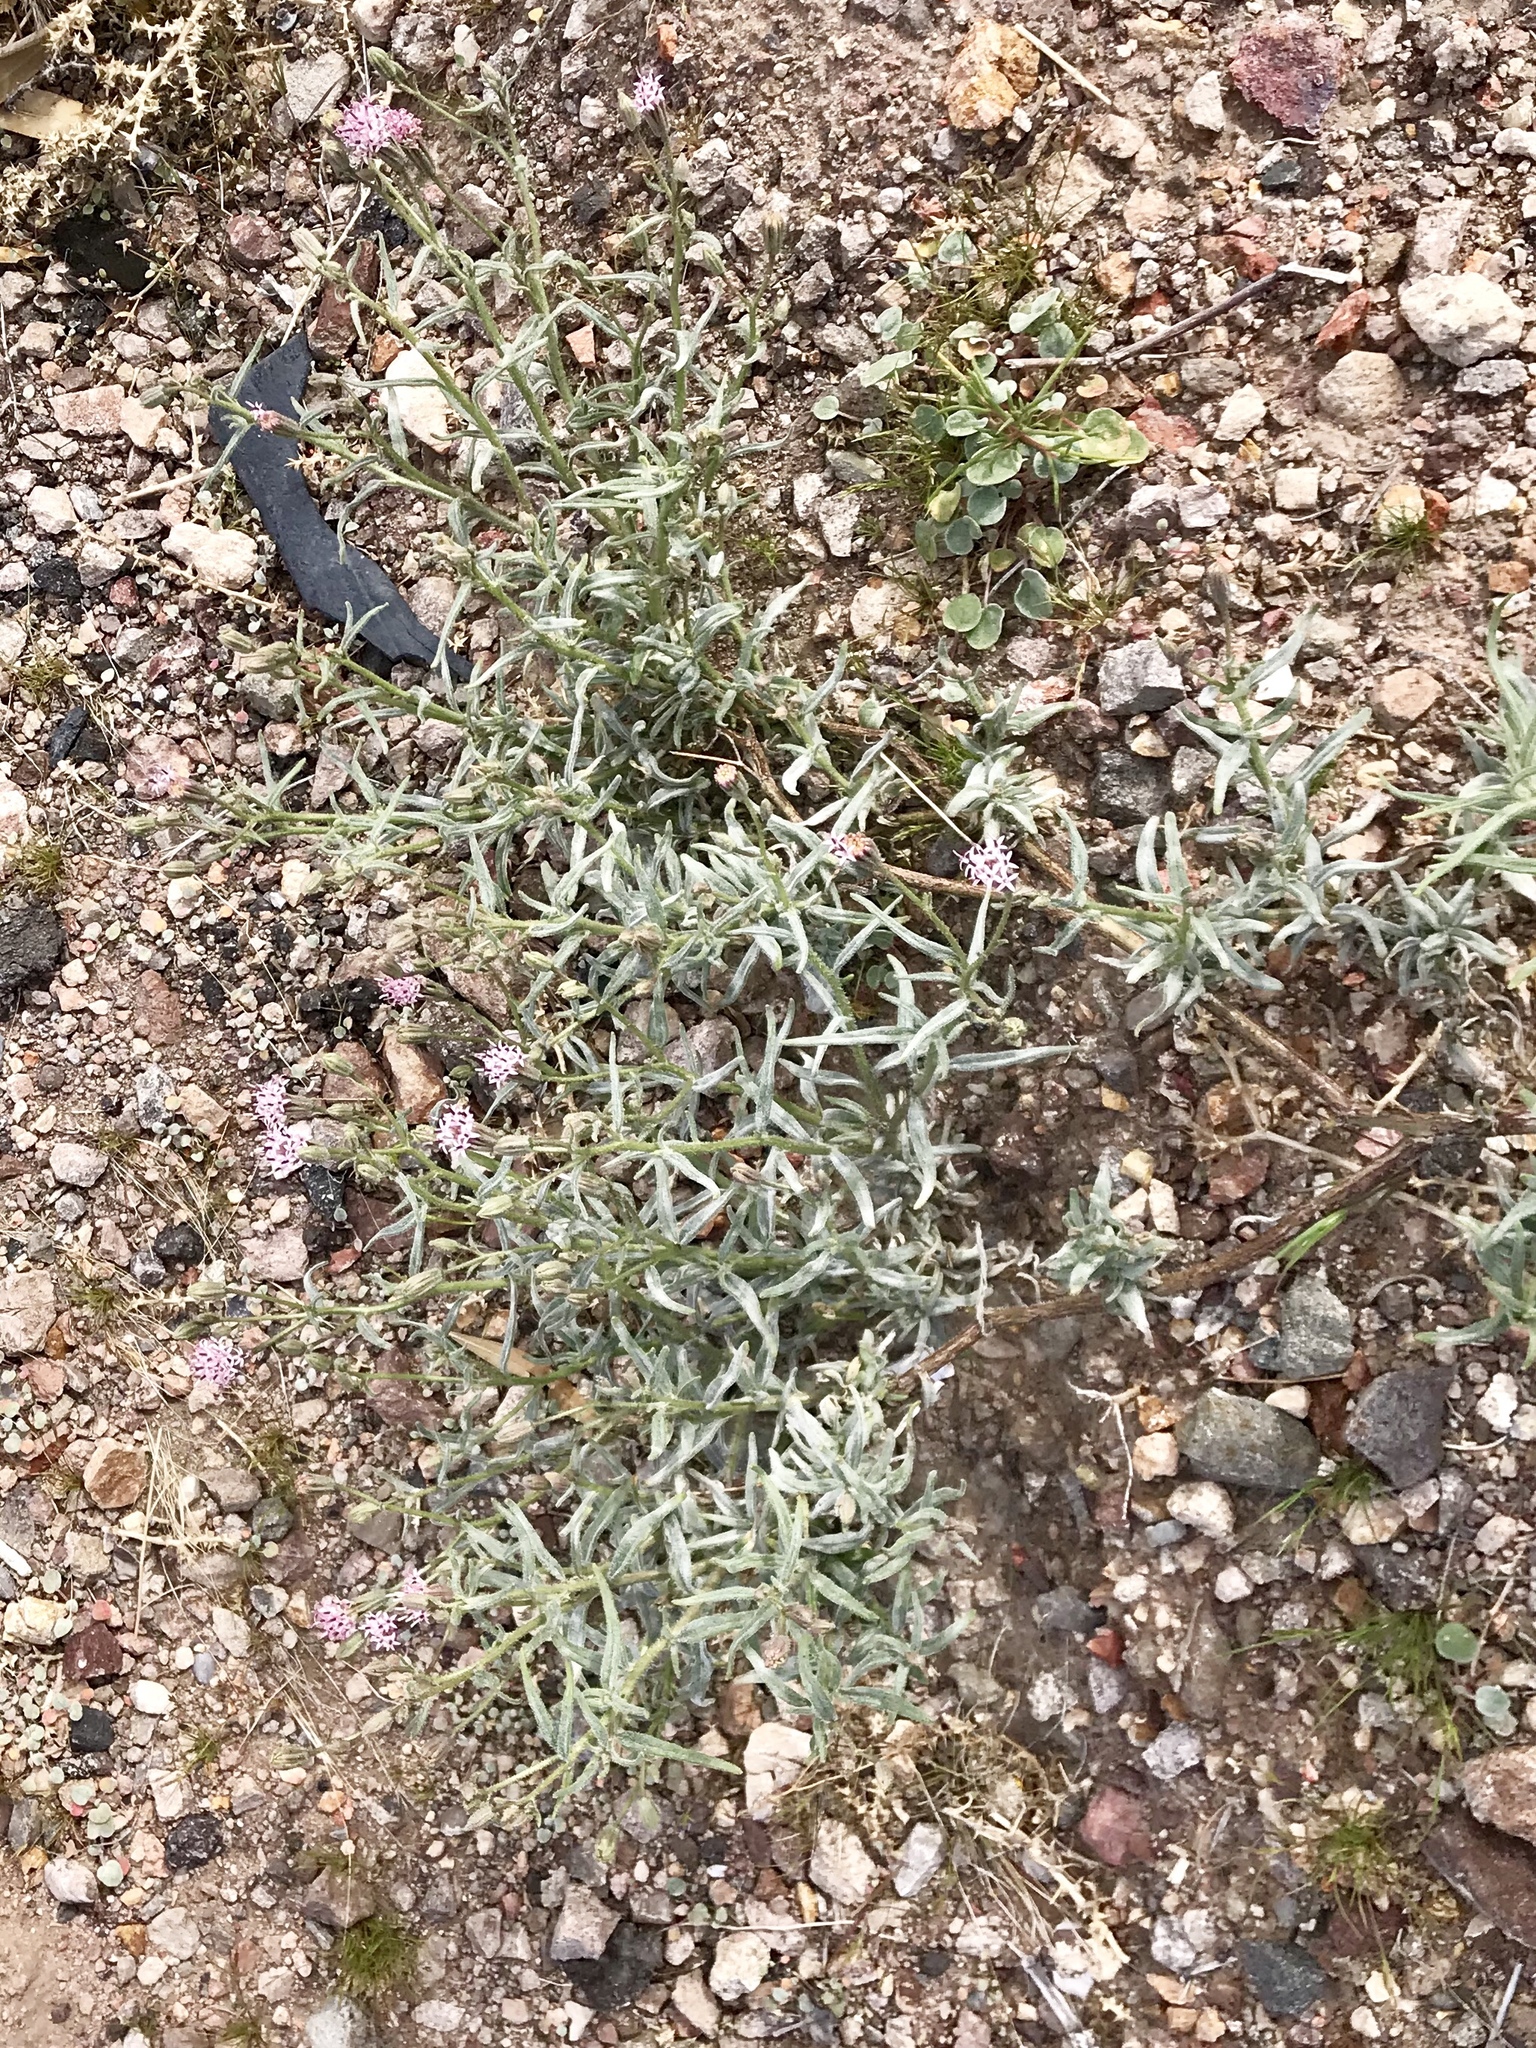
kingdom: Plantae
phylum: Tracheophyta
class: Magnoliopsida
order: Asterales
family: Asteraceae
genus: Palafoxia
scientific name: Palafoxia arida
